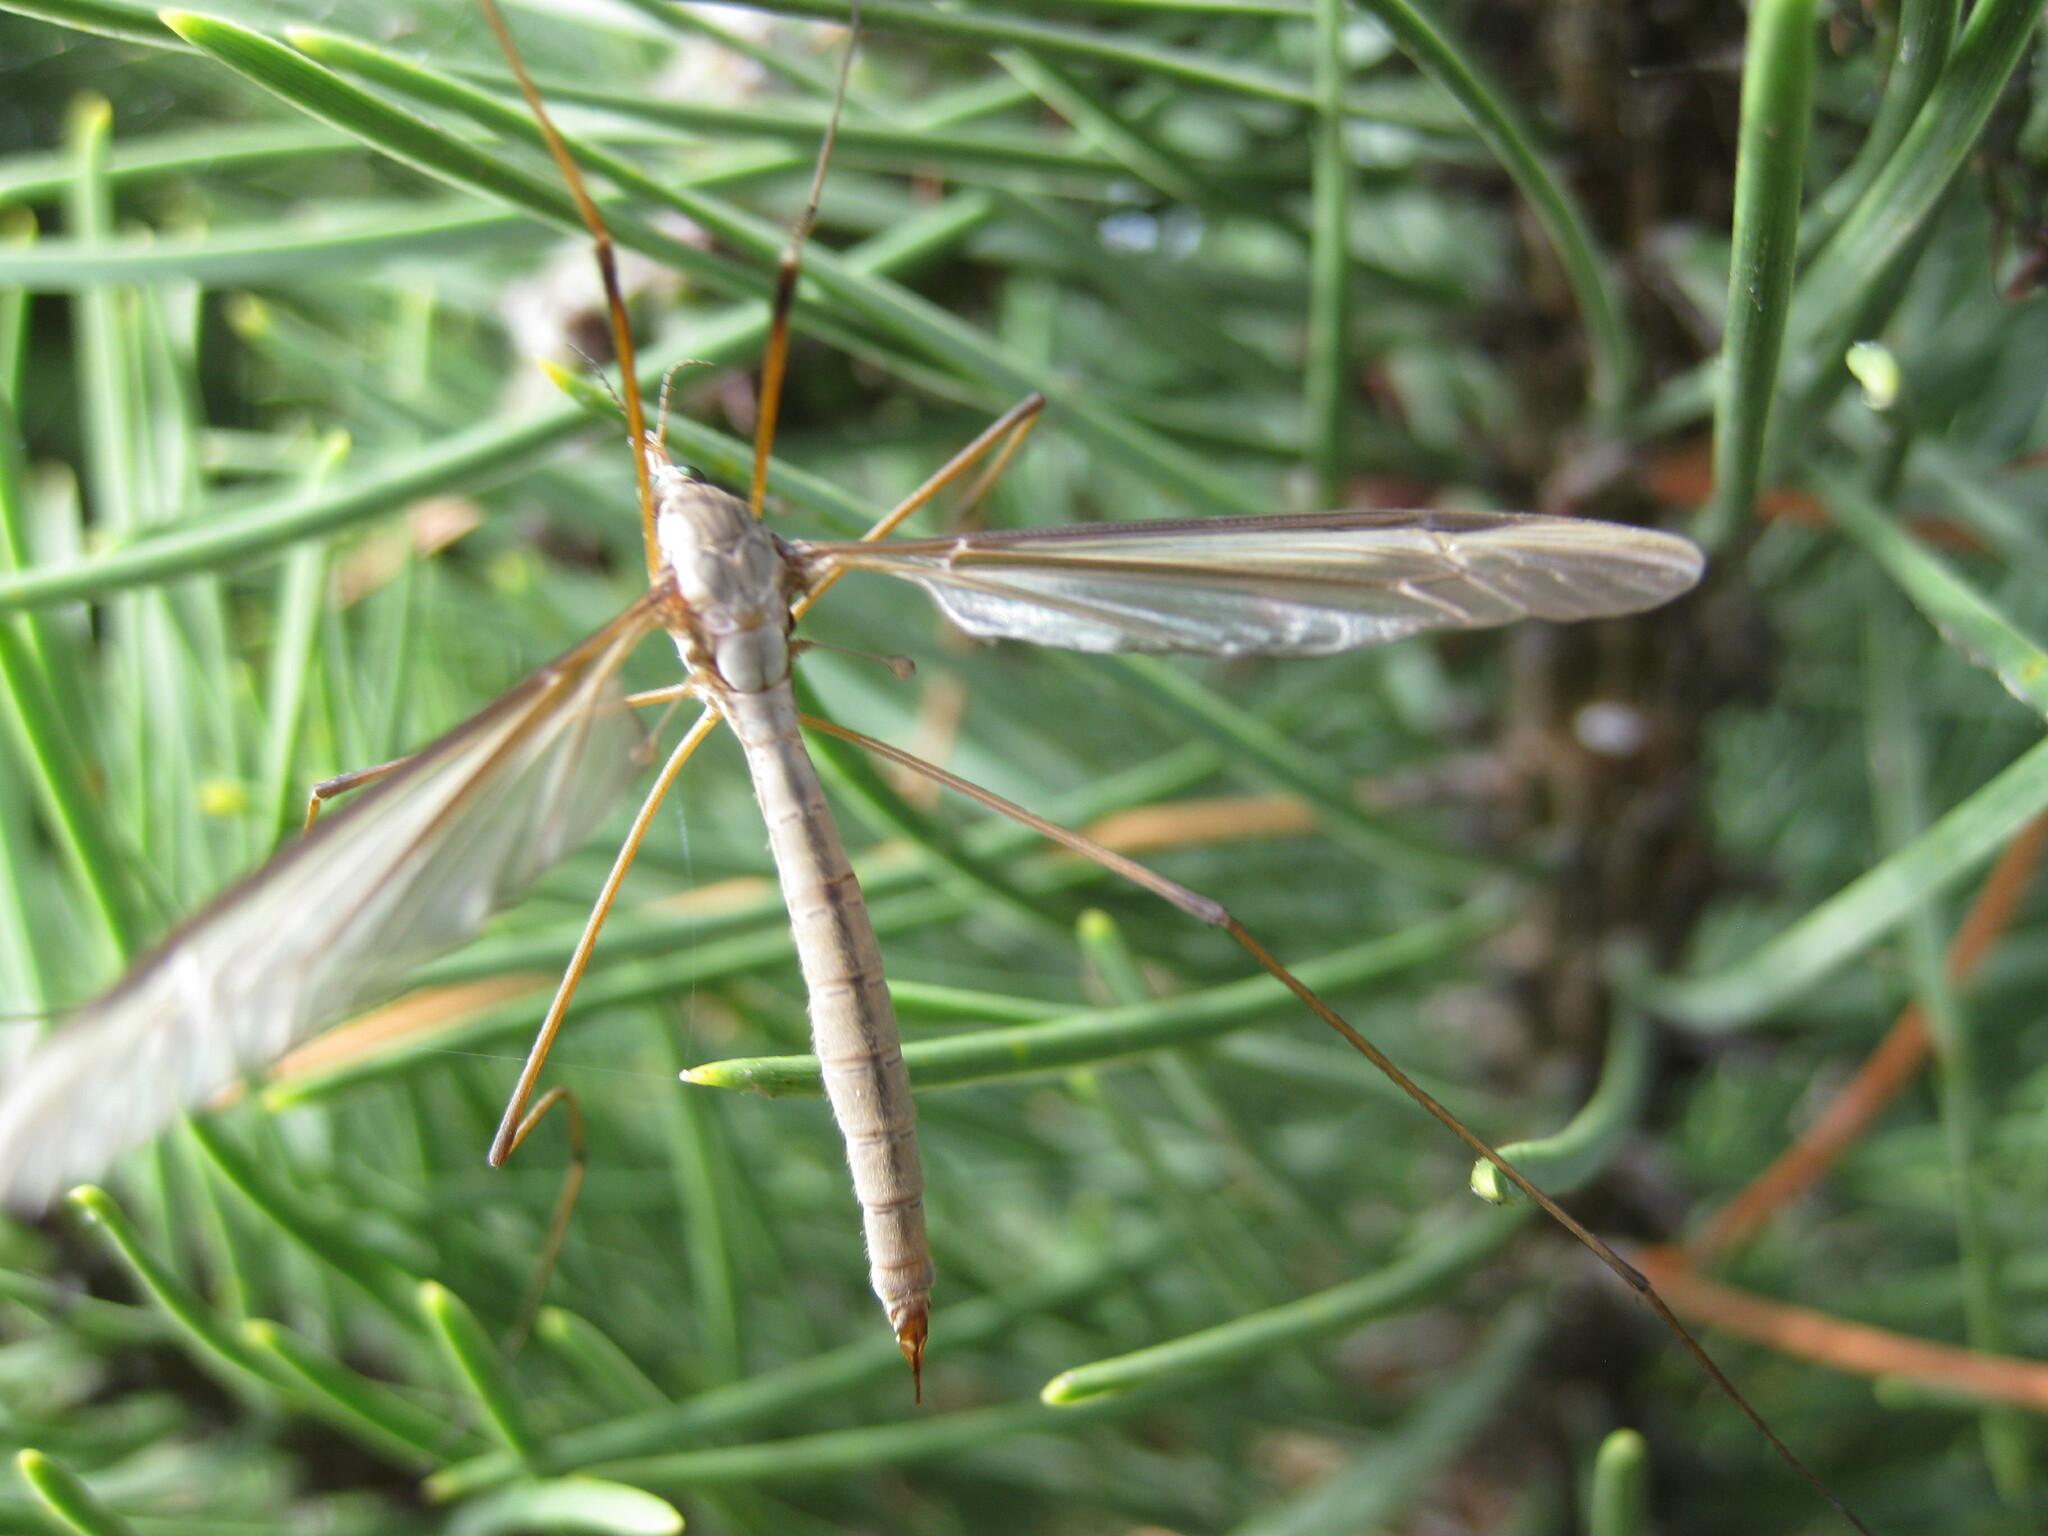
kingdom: Animalia
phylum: Arthropoda
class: Insecta
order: Diptera
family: Tipulidae
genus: Tipula
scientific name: Tipula oleracea
